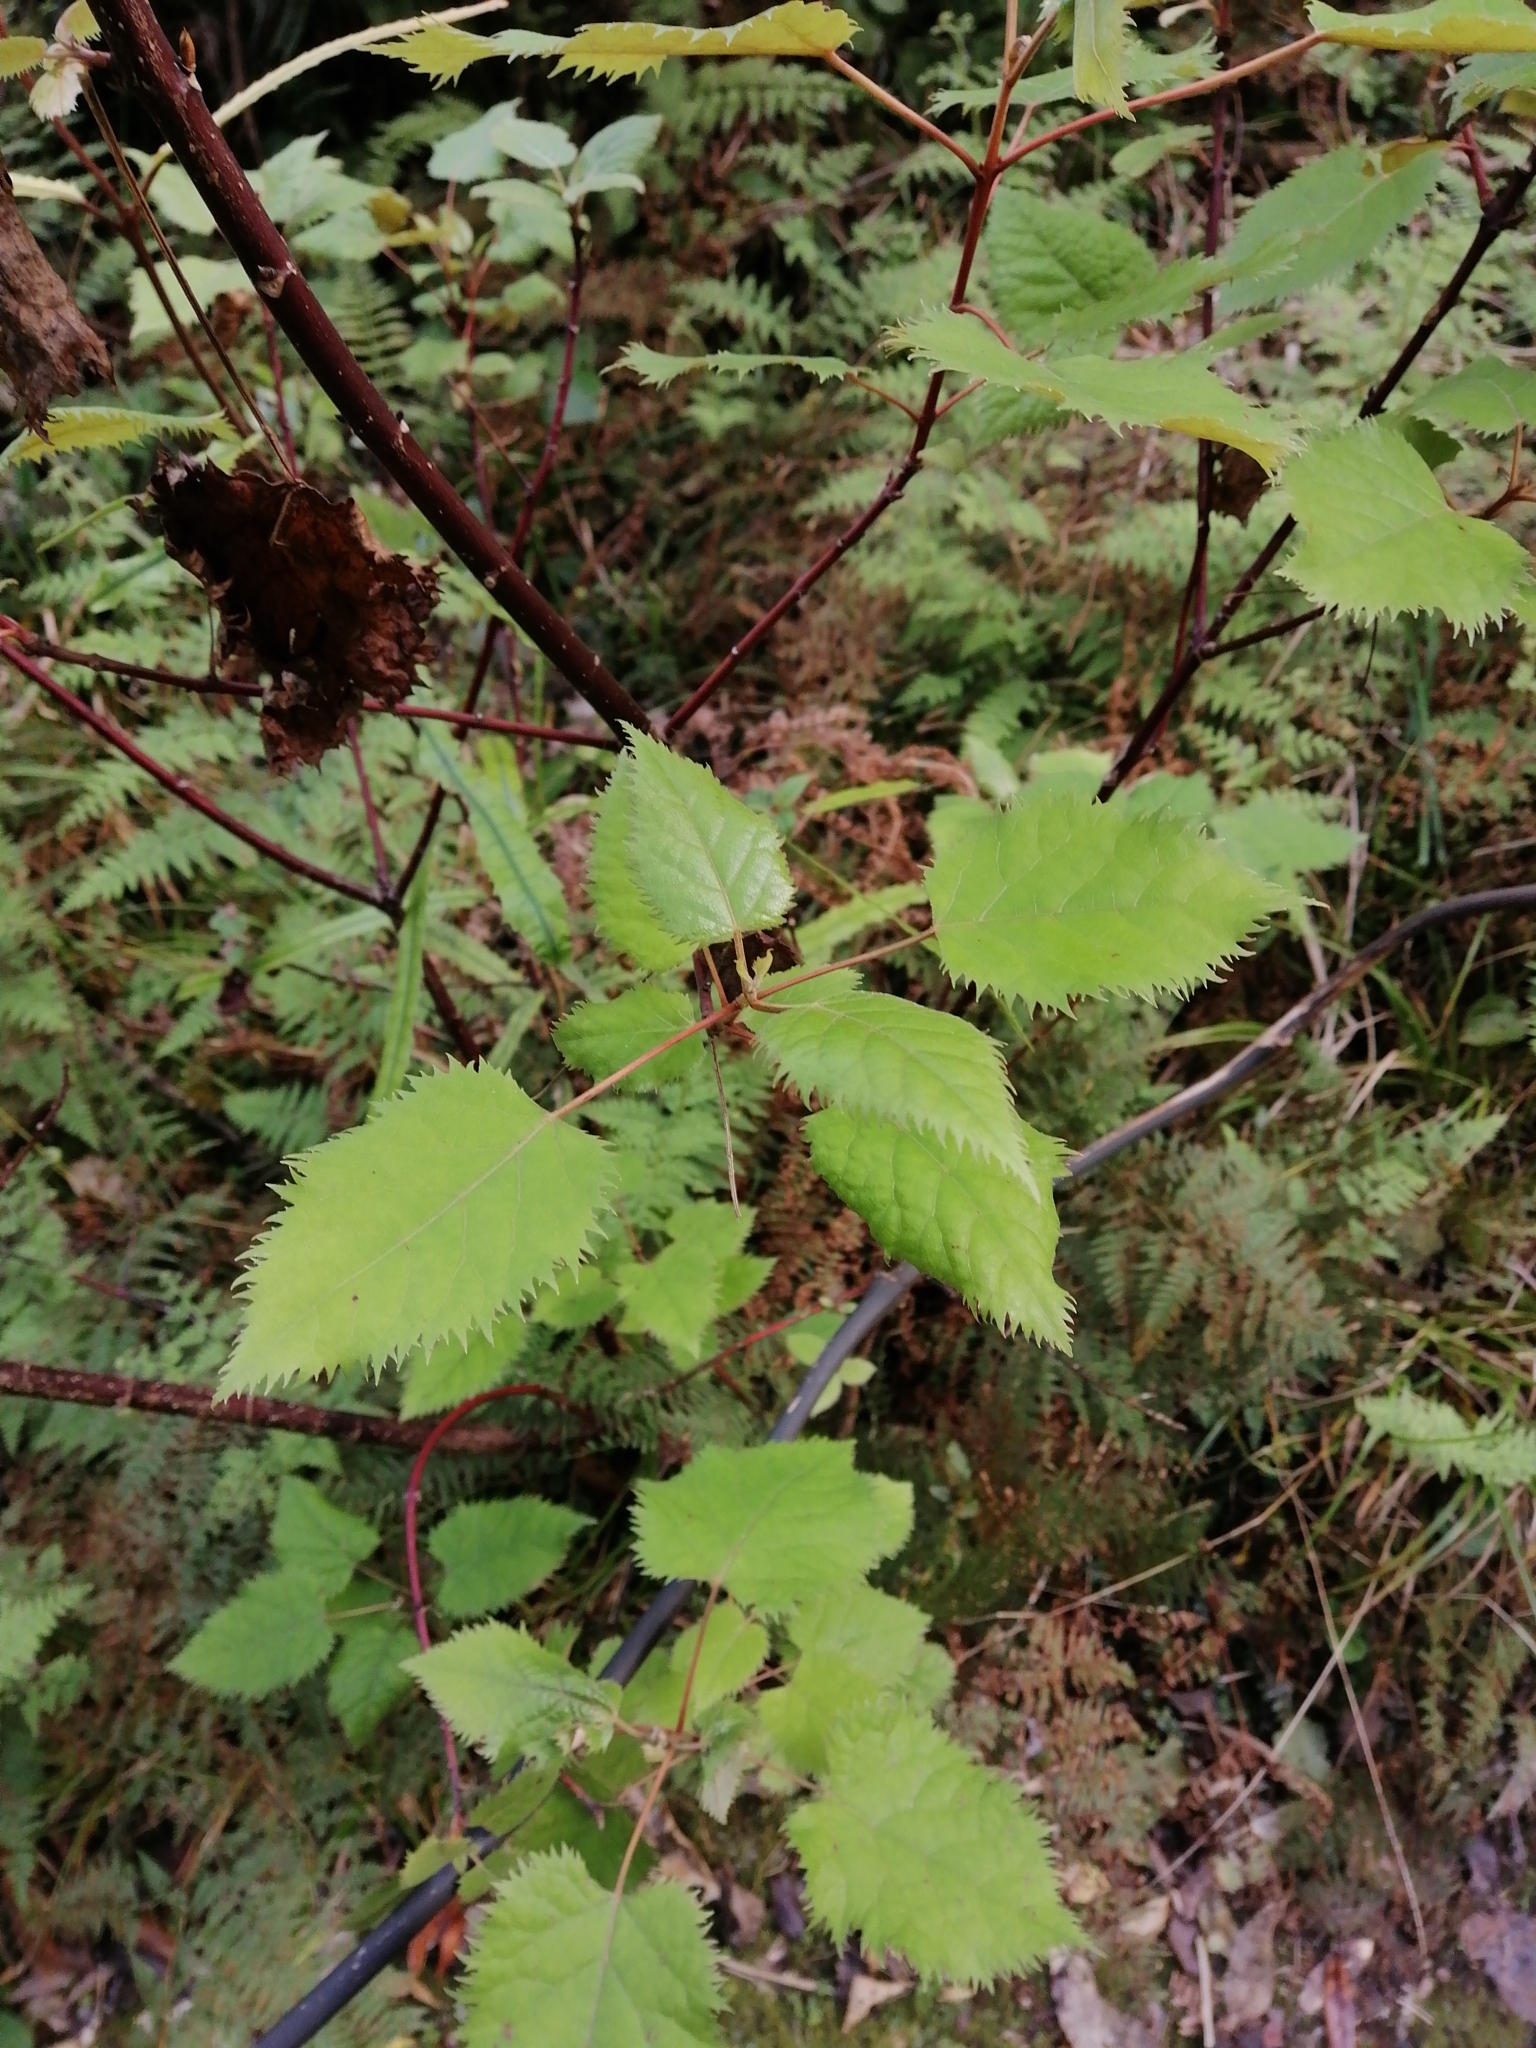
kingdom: Plantae
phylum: Tracheophyta
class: Magnoliopsida
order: Oxalidales
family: Elaeocarpaceae
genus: Aristotelia
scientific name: Aristotelia serrata
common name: New zealand wineberry
